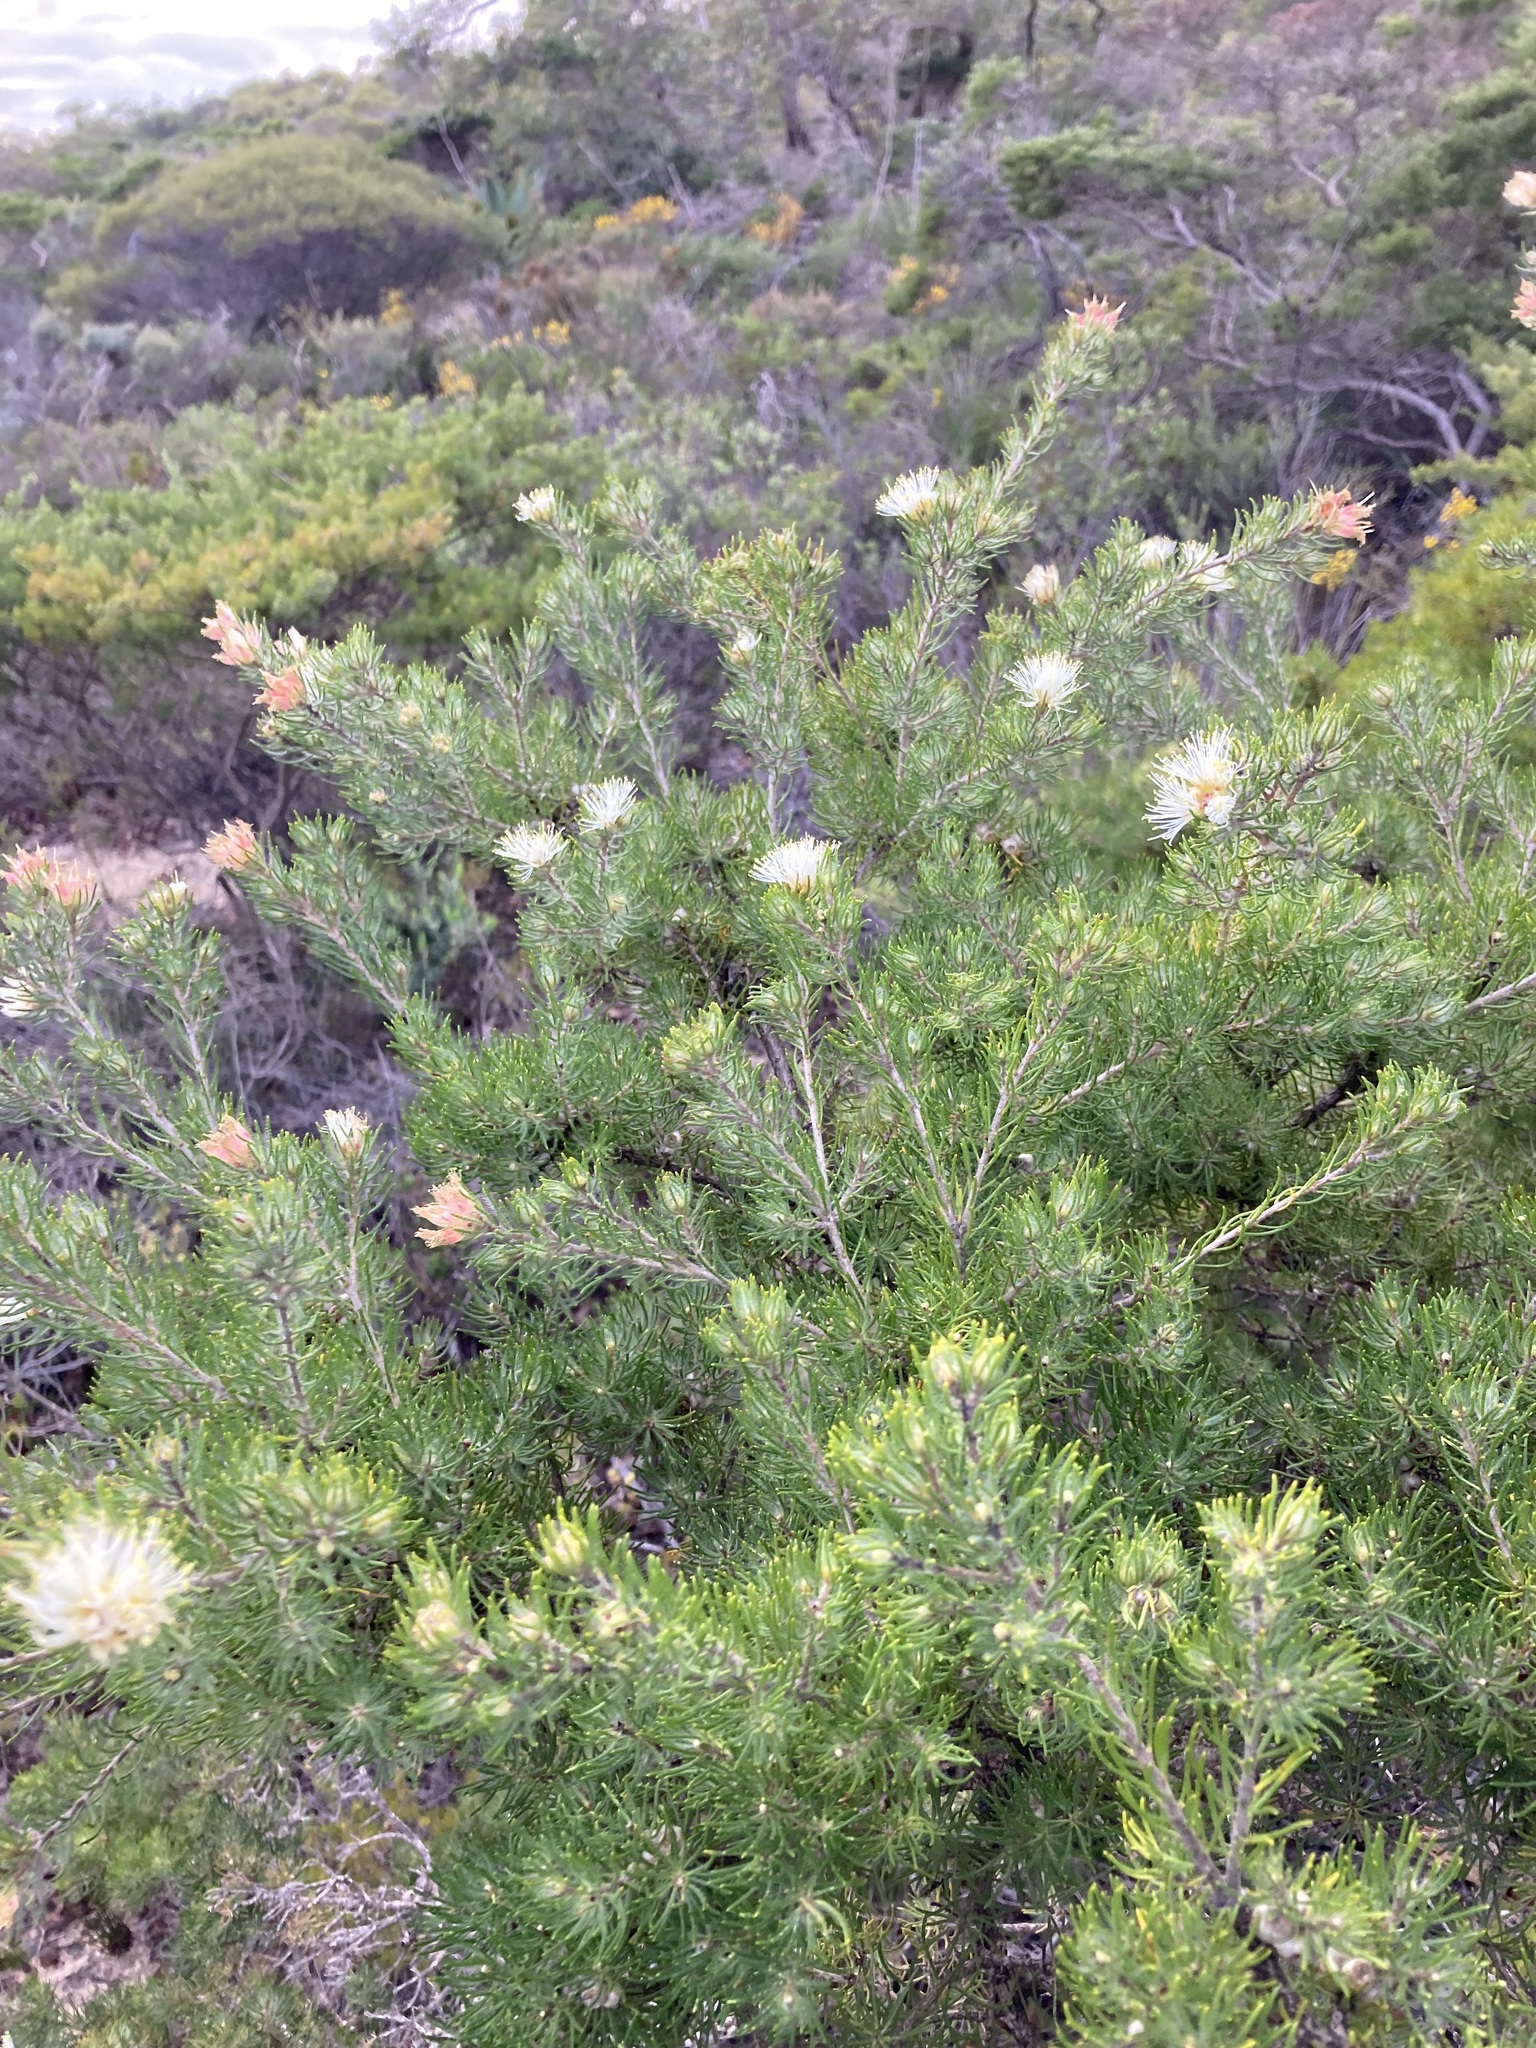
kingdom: Plantae
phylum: Tracheophyta
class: Magnoliopsida
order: Myrtales
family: Myrtaceae
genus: Melaleuca
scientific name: Melaleuca urceolaris
